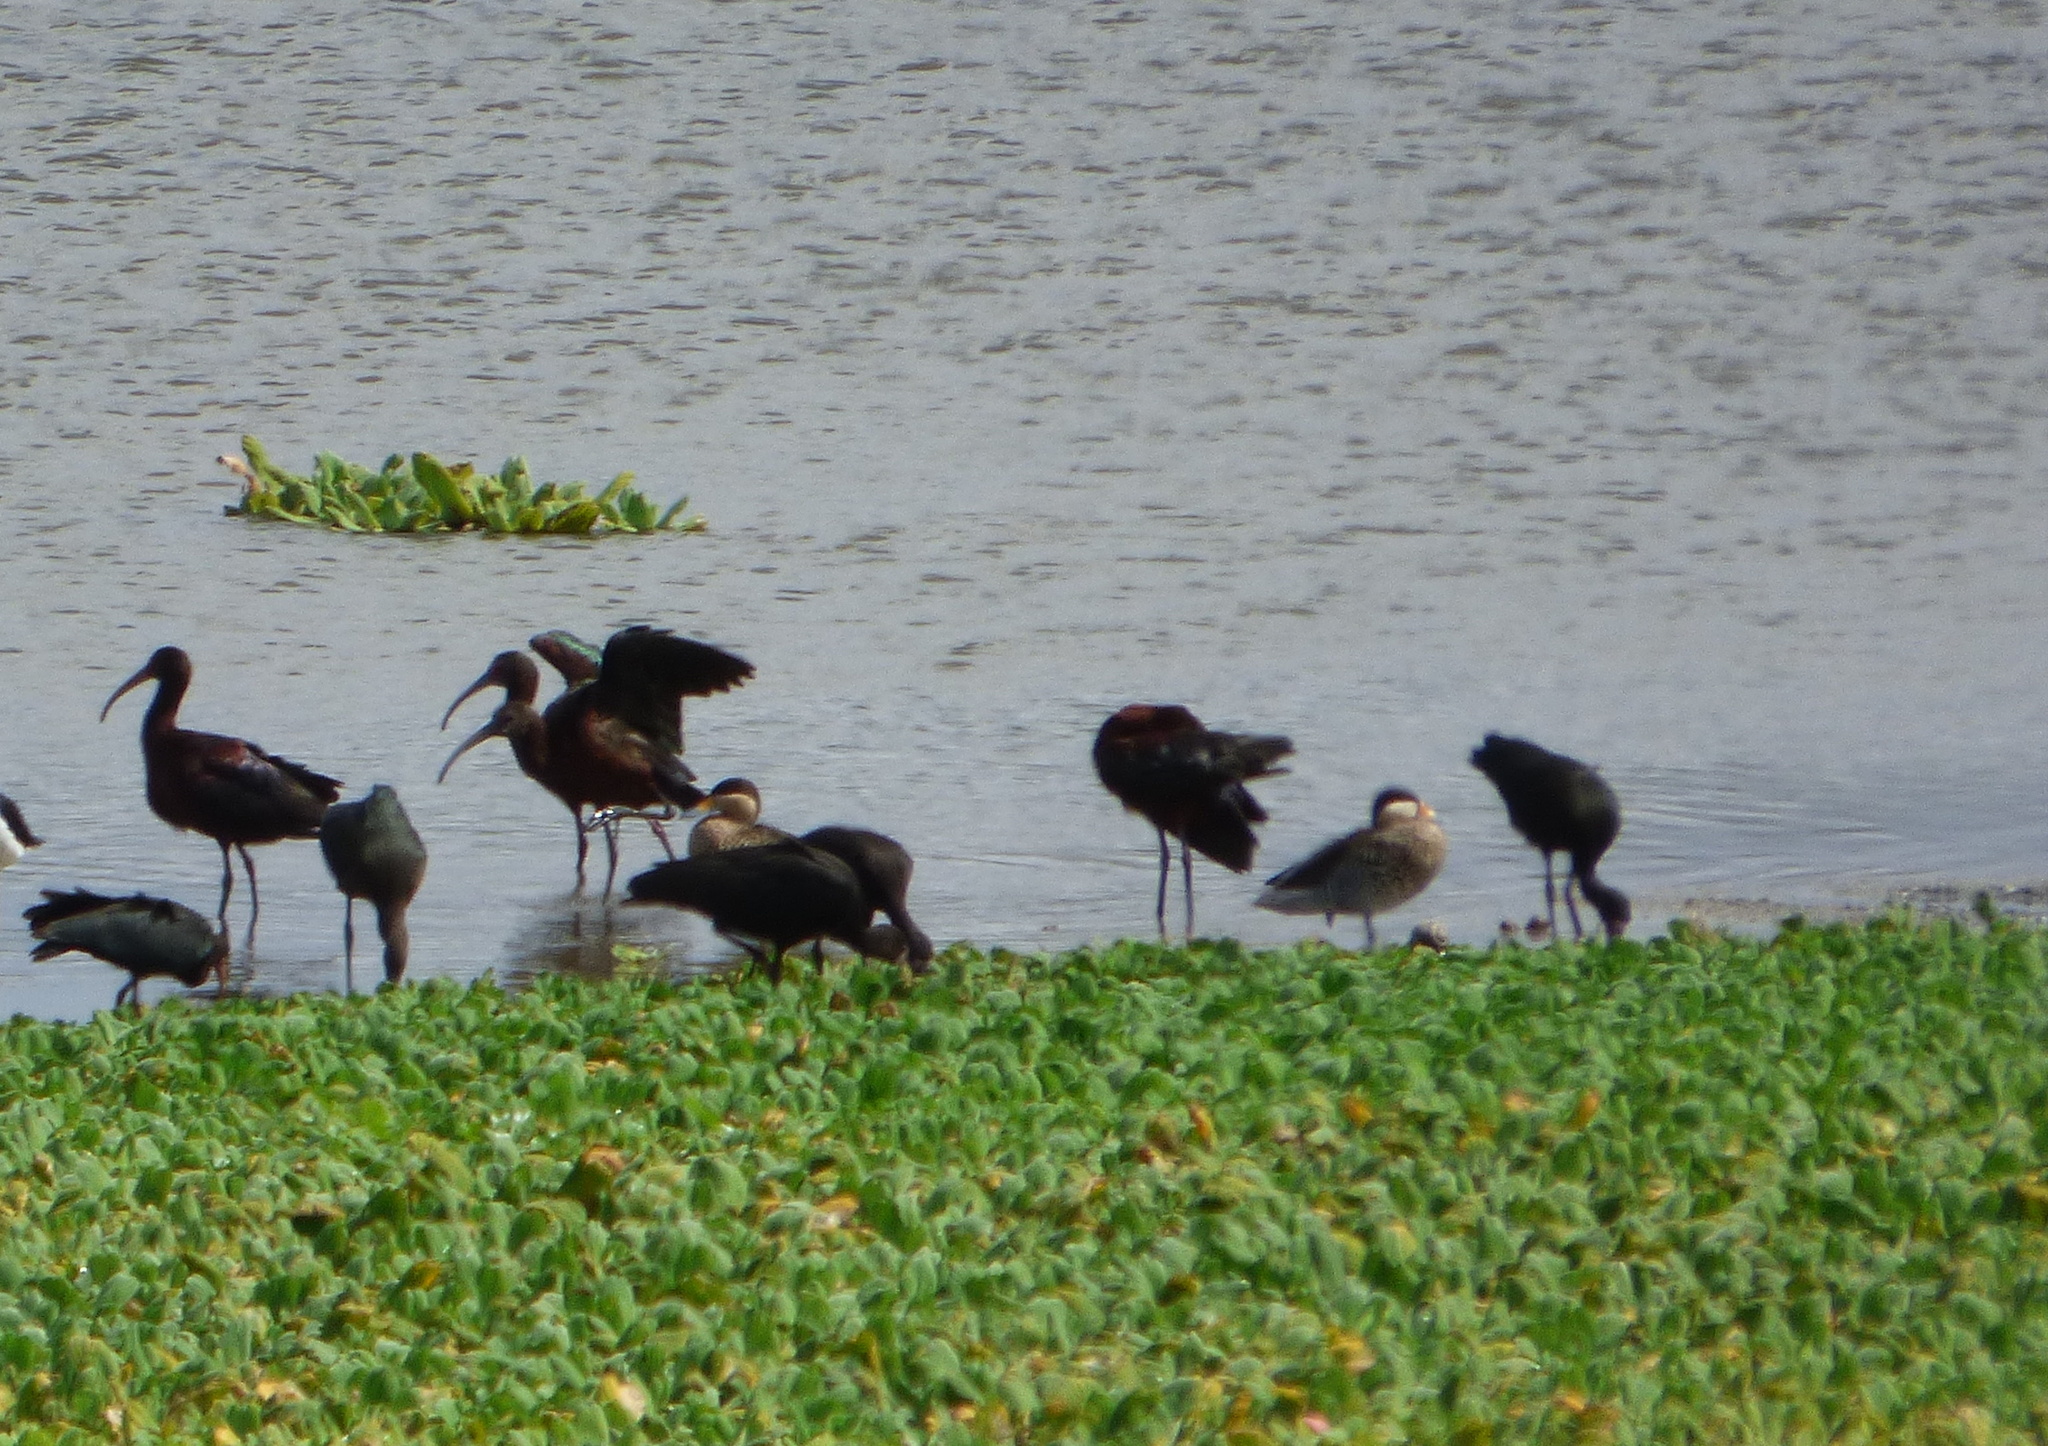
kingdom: Animalia
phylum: Chordata
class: Aves
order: Anseriformes
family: Anatidae
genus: Spatula
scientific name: Spatula versicolor
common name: Silver teal
